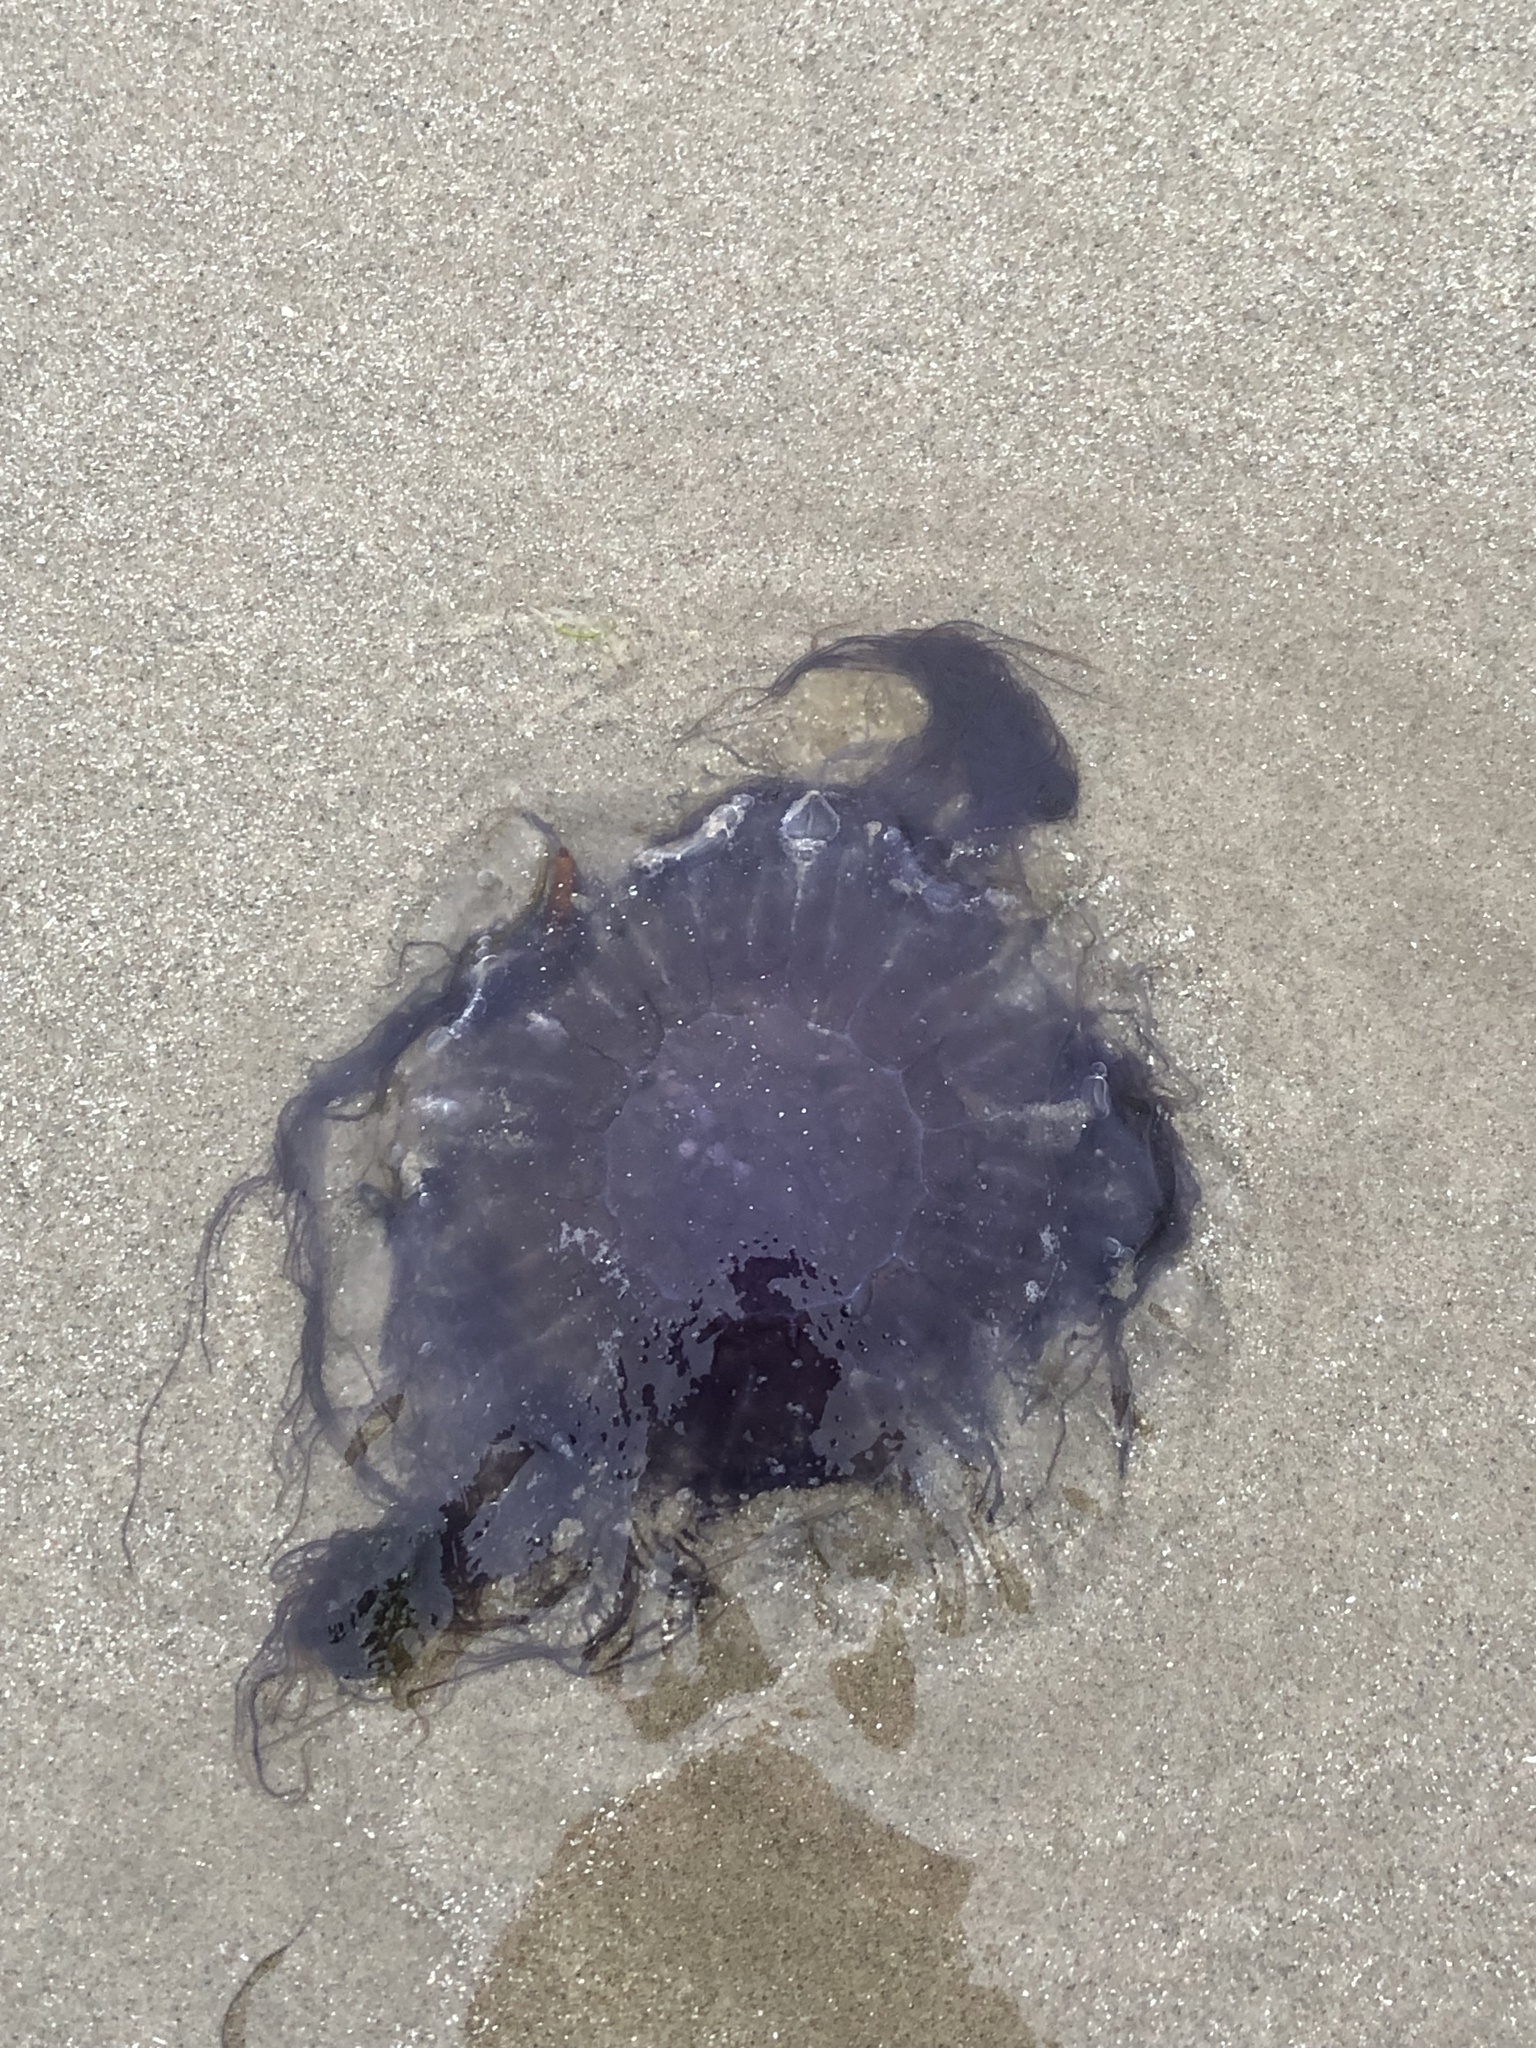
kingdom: Animalia
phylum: Cnidaria
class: Scyphozoa
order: Semaeostomeae
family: Cyaneidae
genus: Cyanea
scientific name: Cyanea lamarckii
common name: Blue jellyfish
